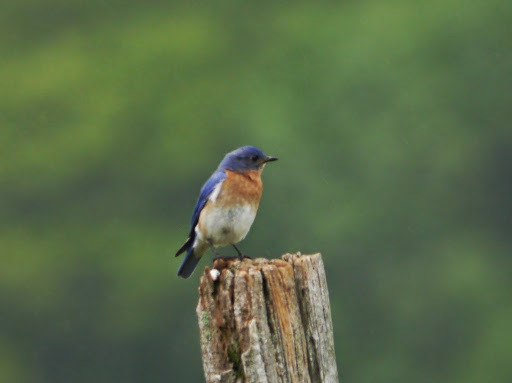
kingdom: Animalia
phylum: Chordata
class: Aves
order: Passeriformes
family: Turdidae
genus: Sialia
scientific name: Sialia sialis
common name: Eastern bluebird
